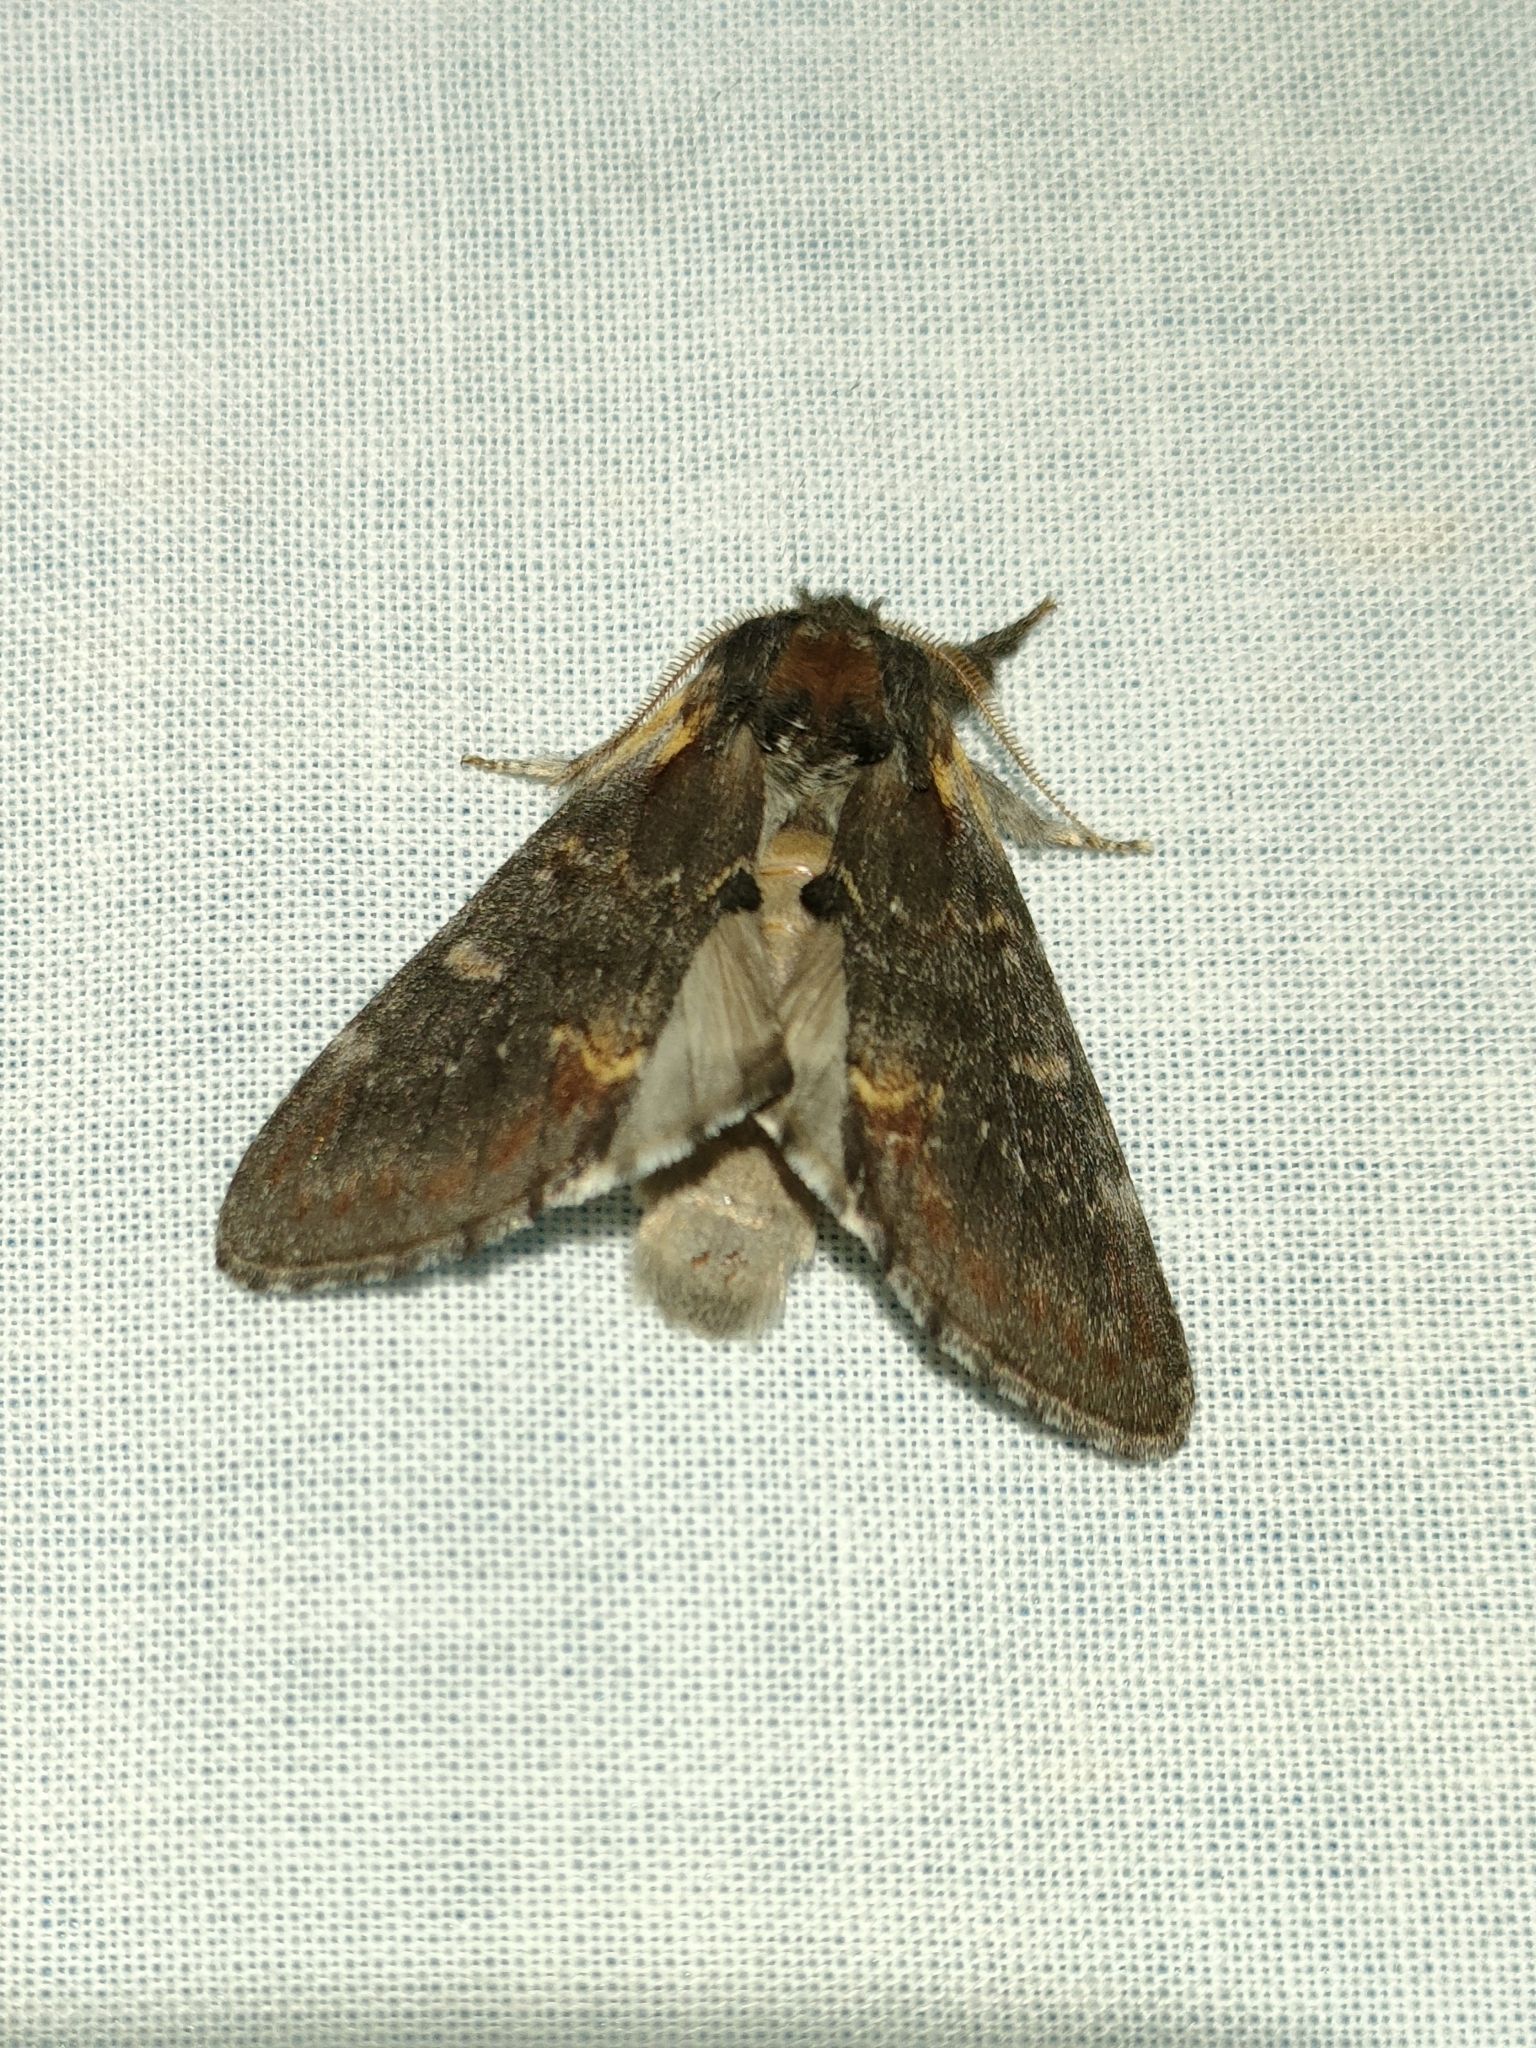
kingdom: Animalia
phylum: Arthropoda
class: Insecta
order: Lepidoptera
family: Notodontidae
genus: Notodonta
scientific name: Notodonta dromedarius
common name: Iron prominent
